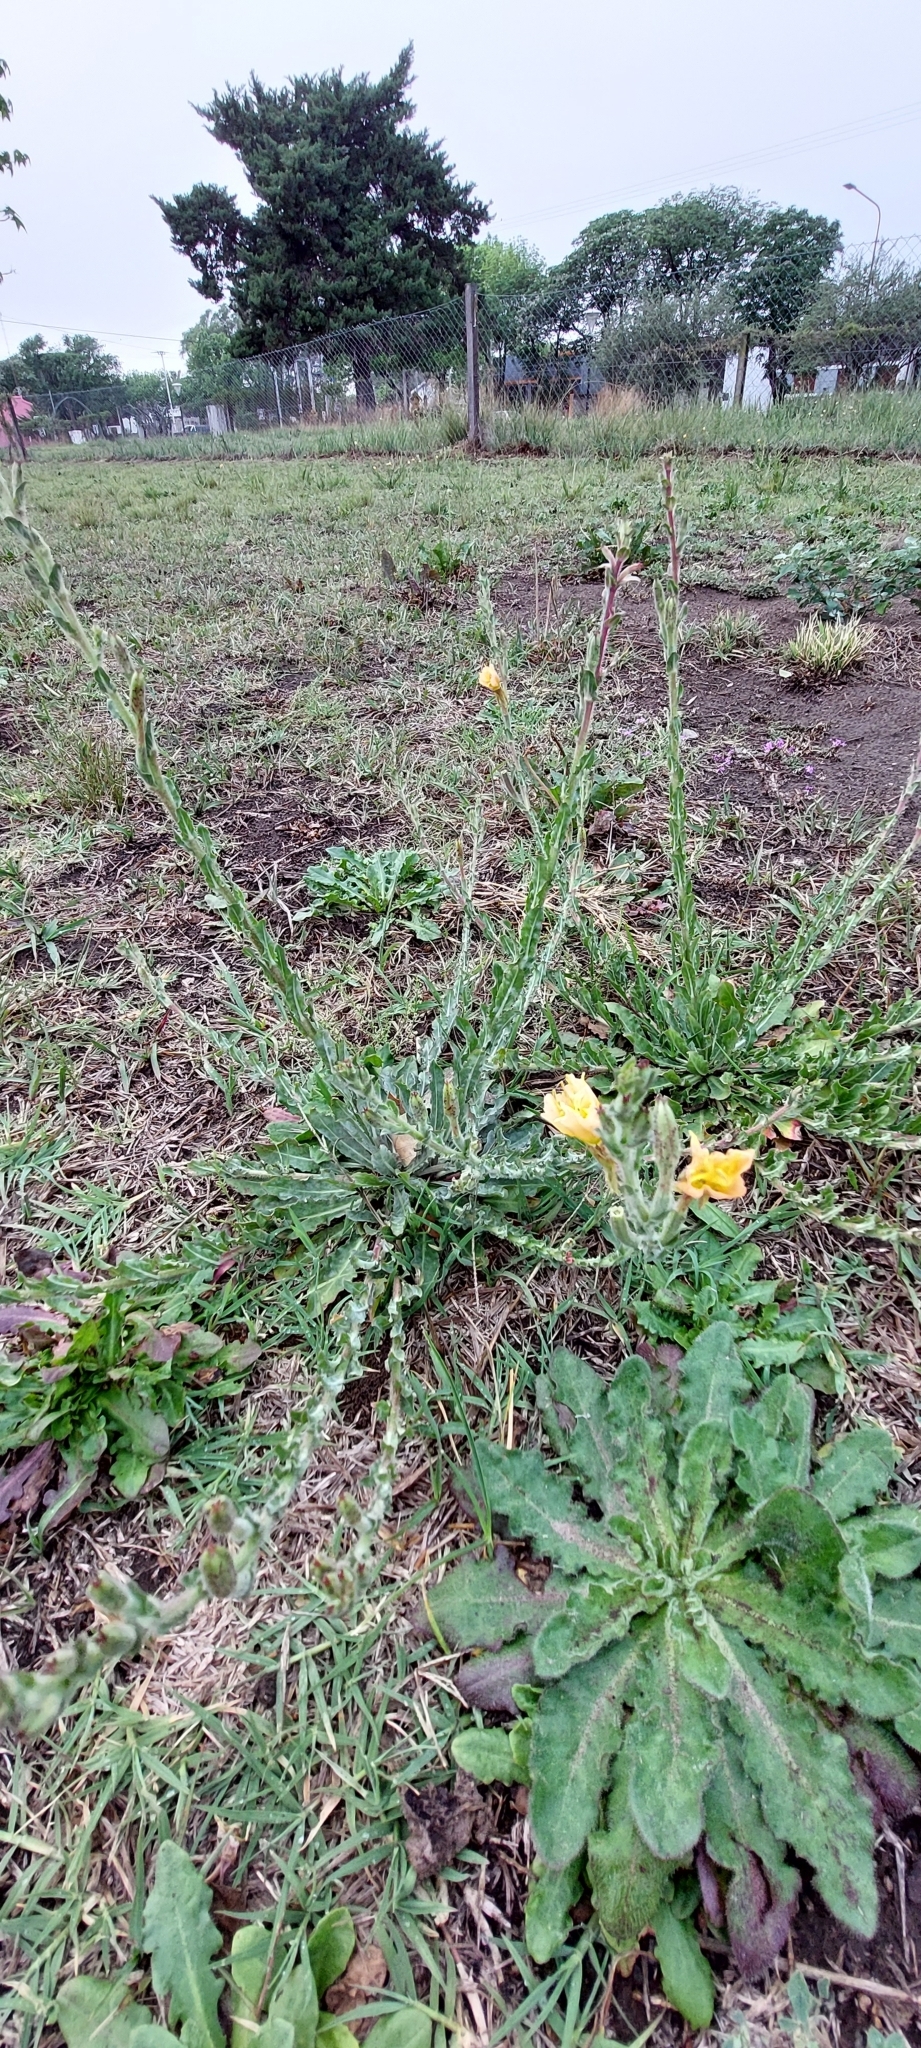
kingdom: Plantae
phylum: Tracheophyta
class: Magnoliopsida
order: Myrtales
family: Onagraceae
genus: Oenothera
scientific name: Oenothera odorata
